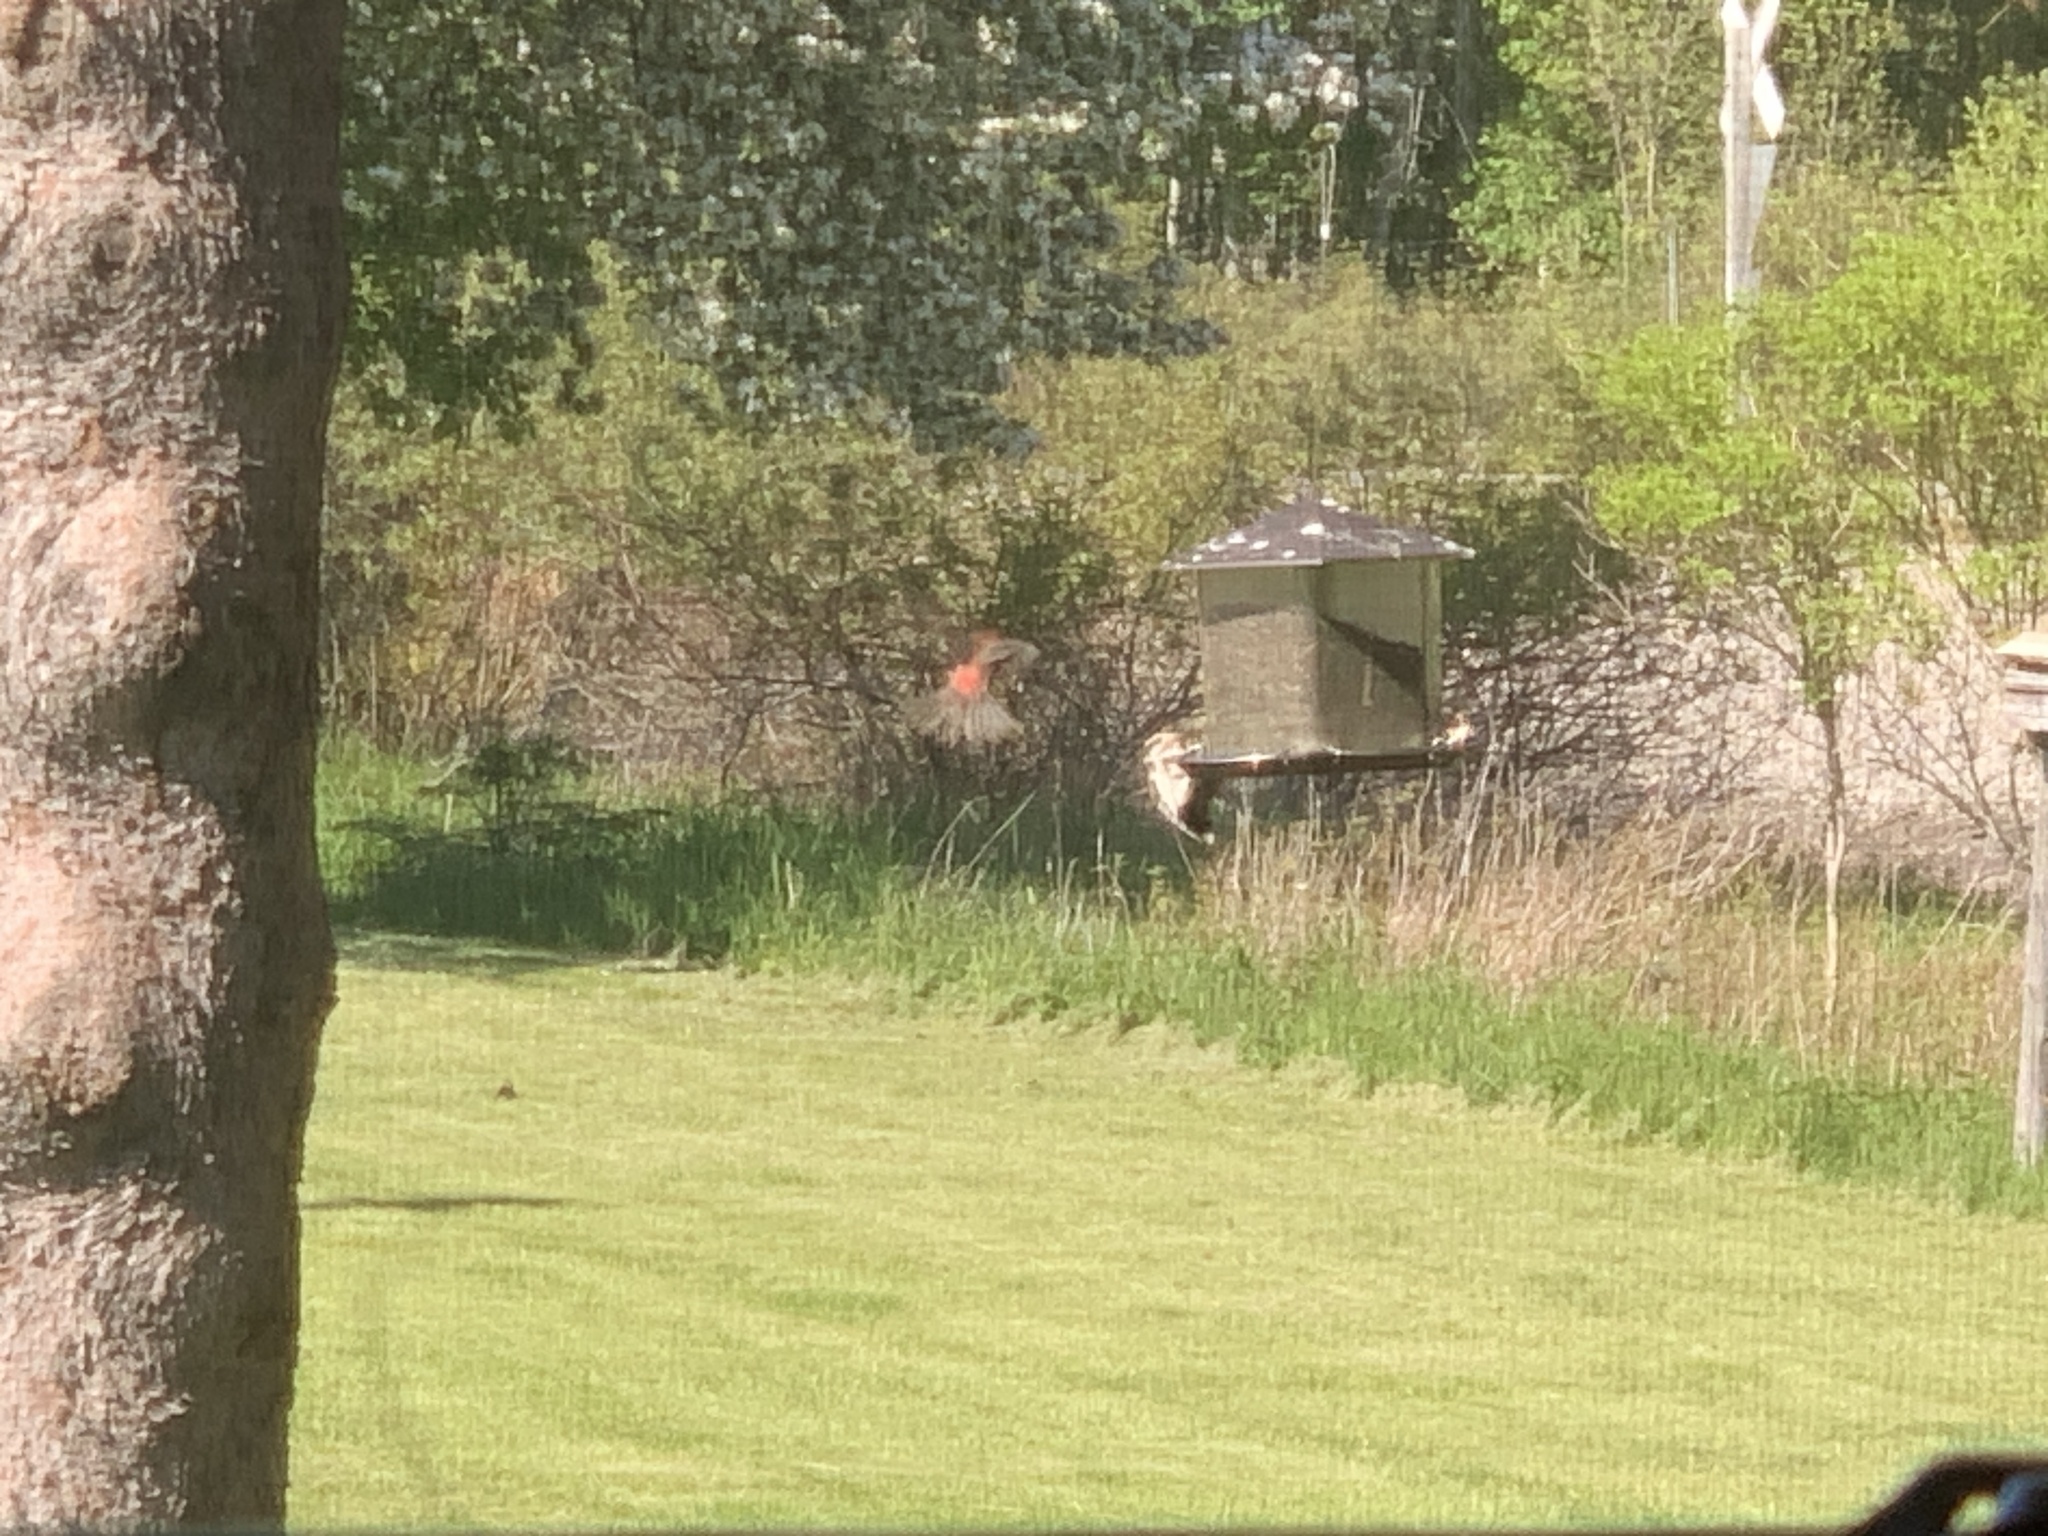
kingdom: Animalia
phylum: Chordata
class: Aves
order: Piciformes
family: Picidae
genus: Leuconotopicus
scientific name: Leuconotopicus villosus
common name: Hairy woodpecker
